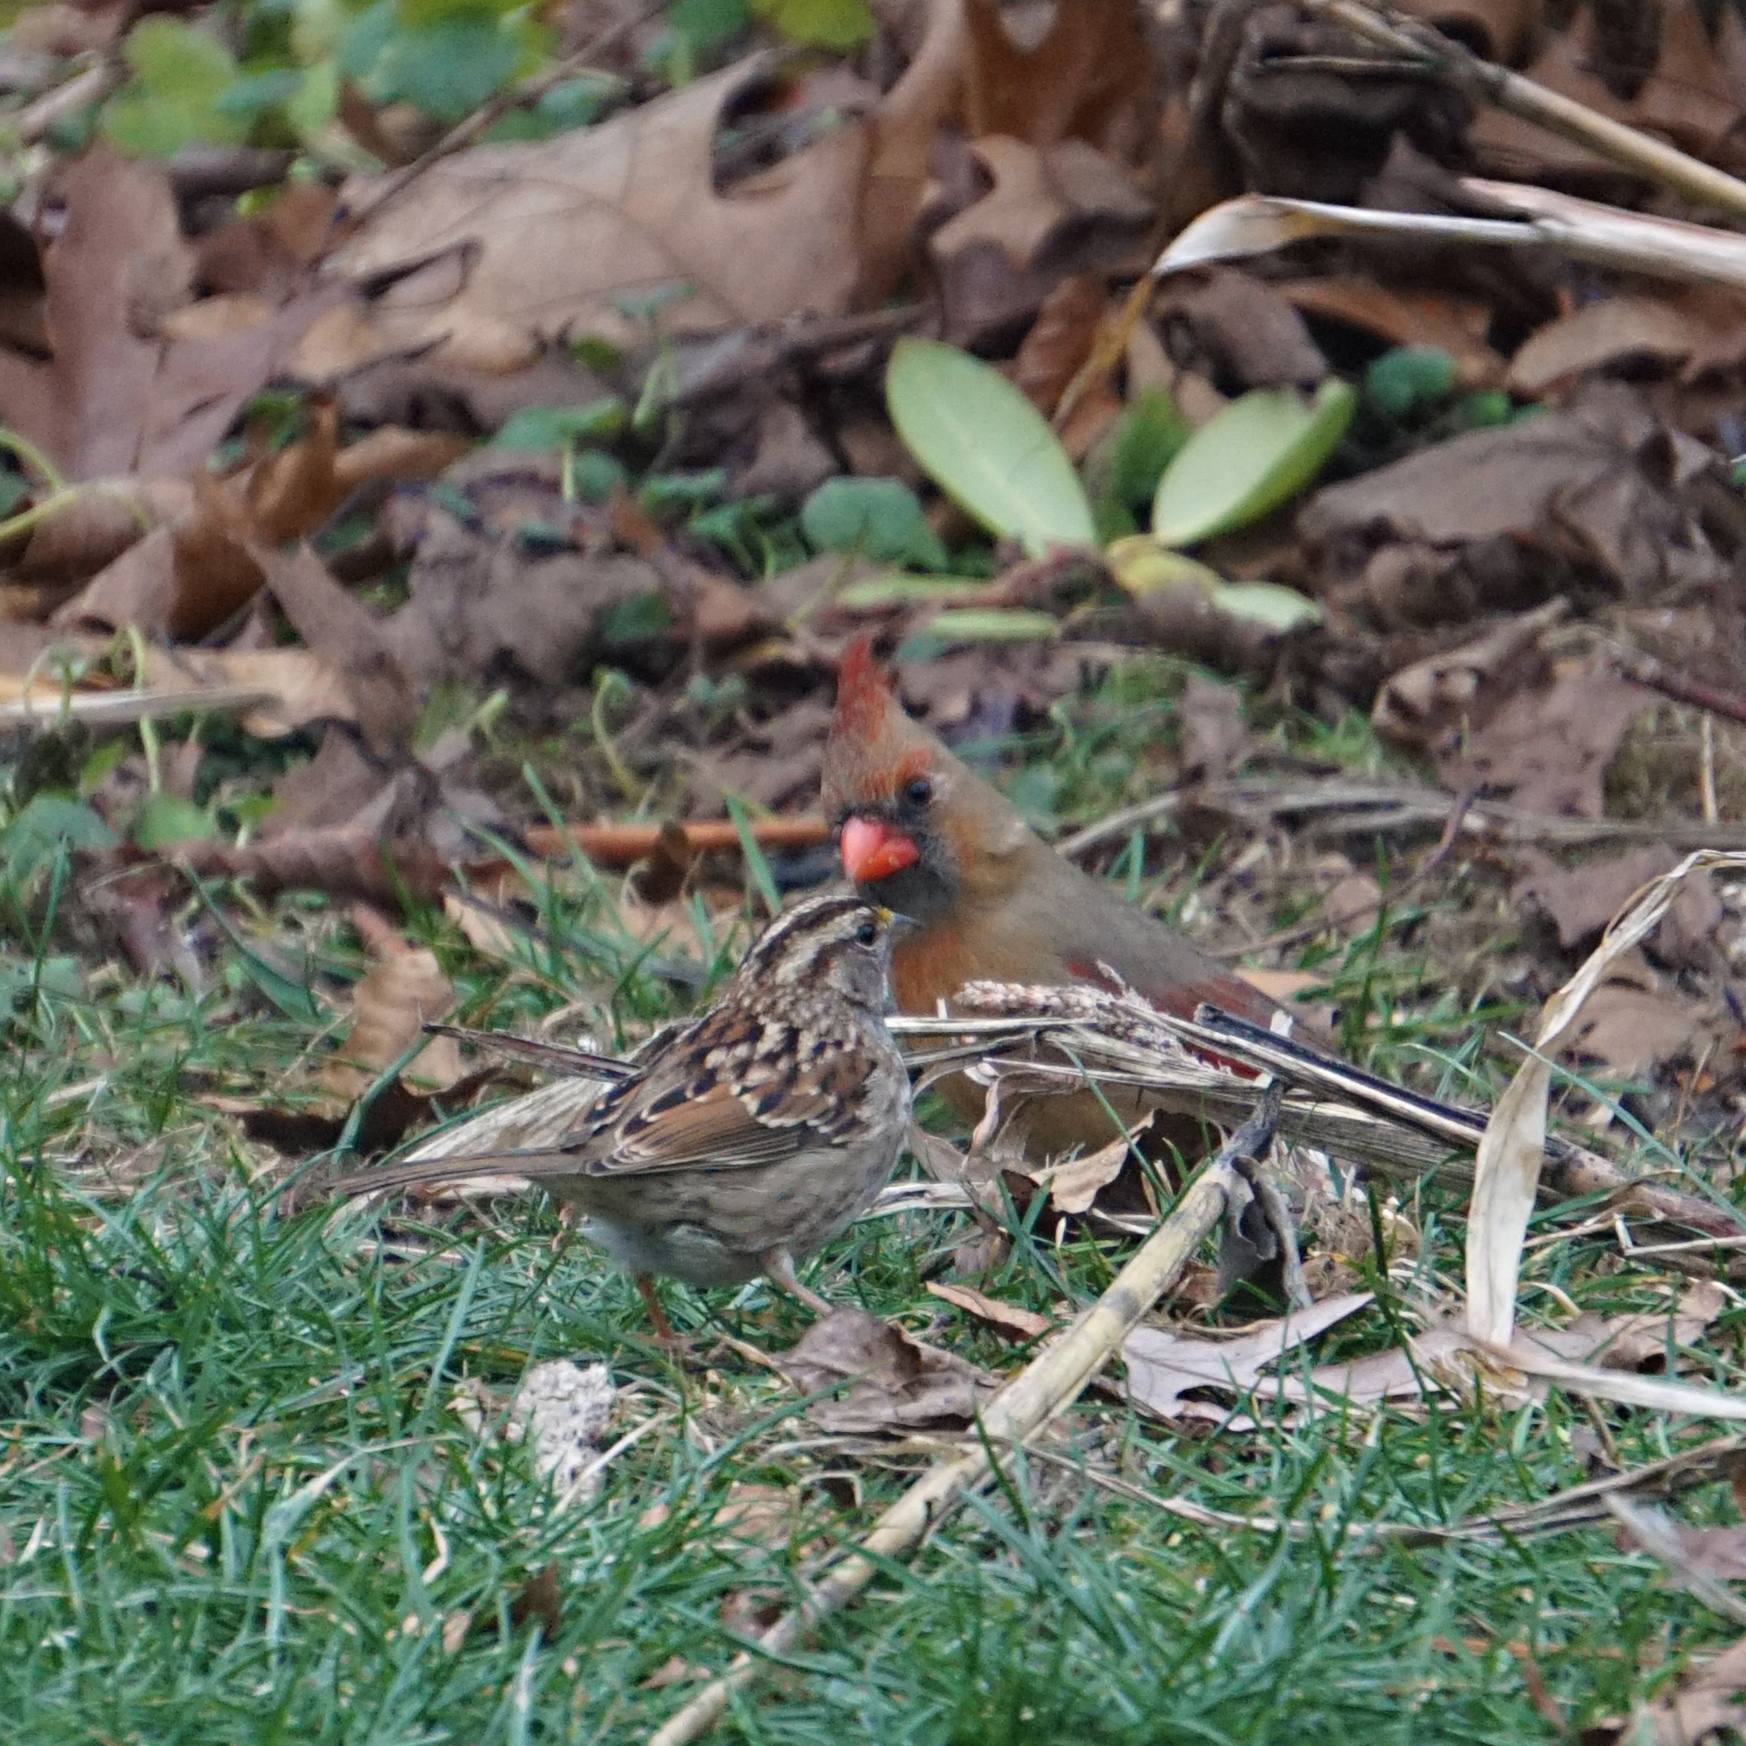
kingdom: Animalia
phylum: Chordata
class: Aves
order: Passeriformes
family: Cardinalidae
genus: Cardinalis
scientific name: Cardinalis cardinalis
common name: Northern cardinal
